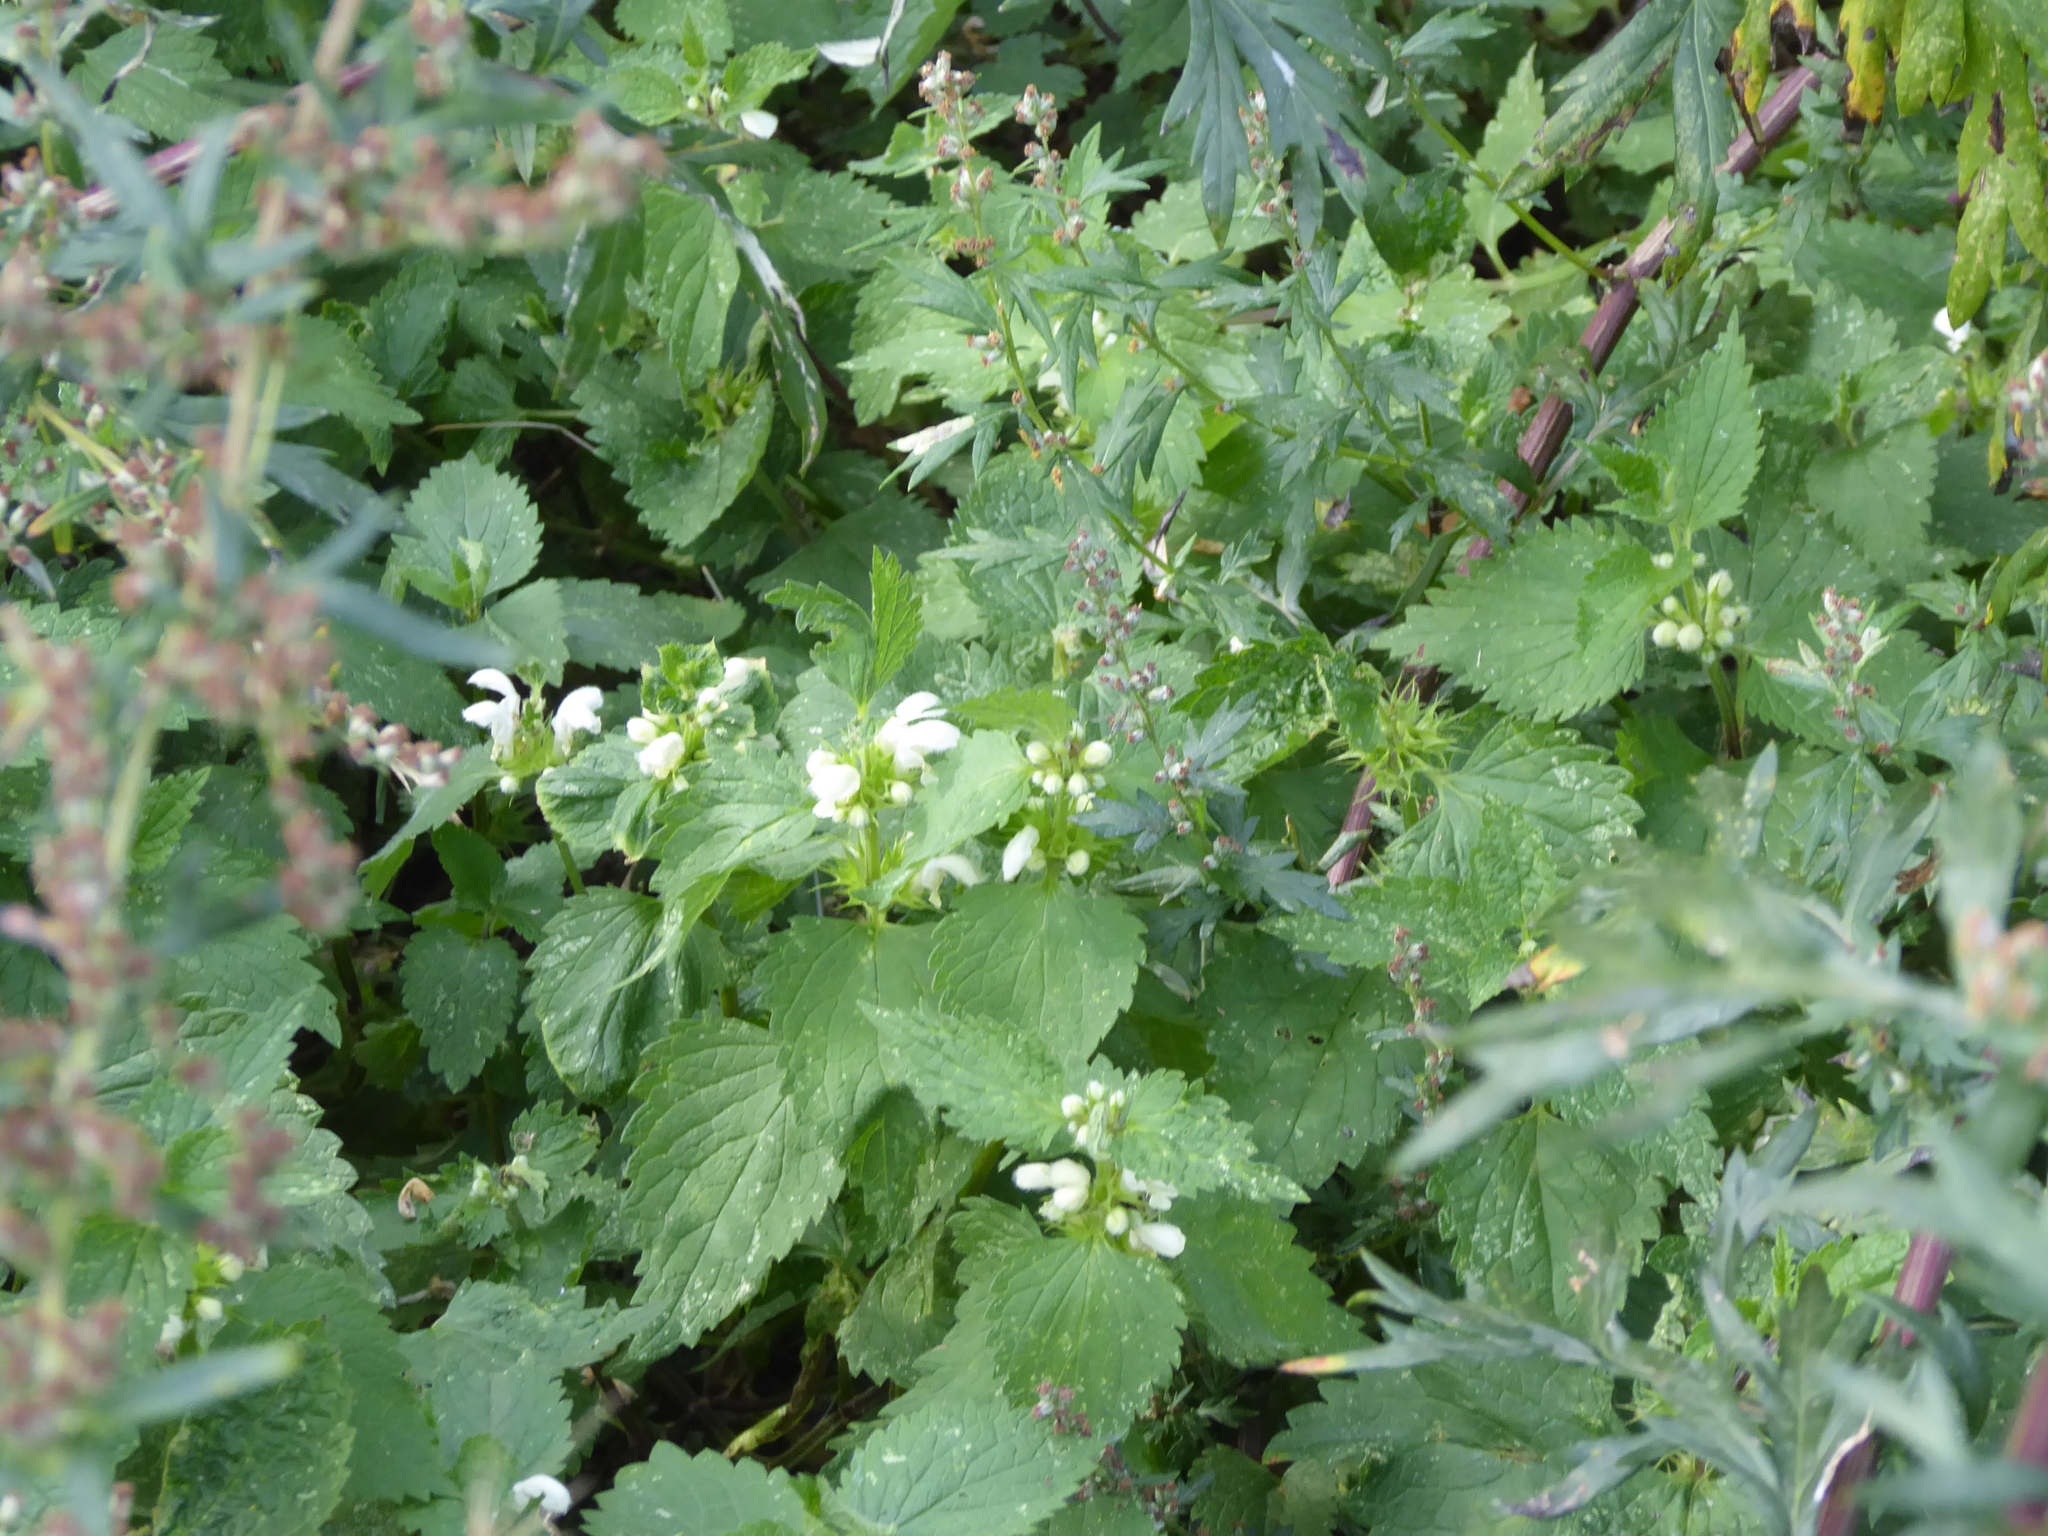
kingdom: Plantae
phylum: Tracheophyta
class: Magnoliopsida
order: Lamiales
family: Lamiaceae
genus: Lamium
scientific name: Lamium album
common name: White dead-nettle
